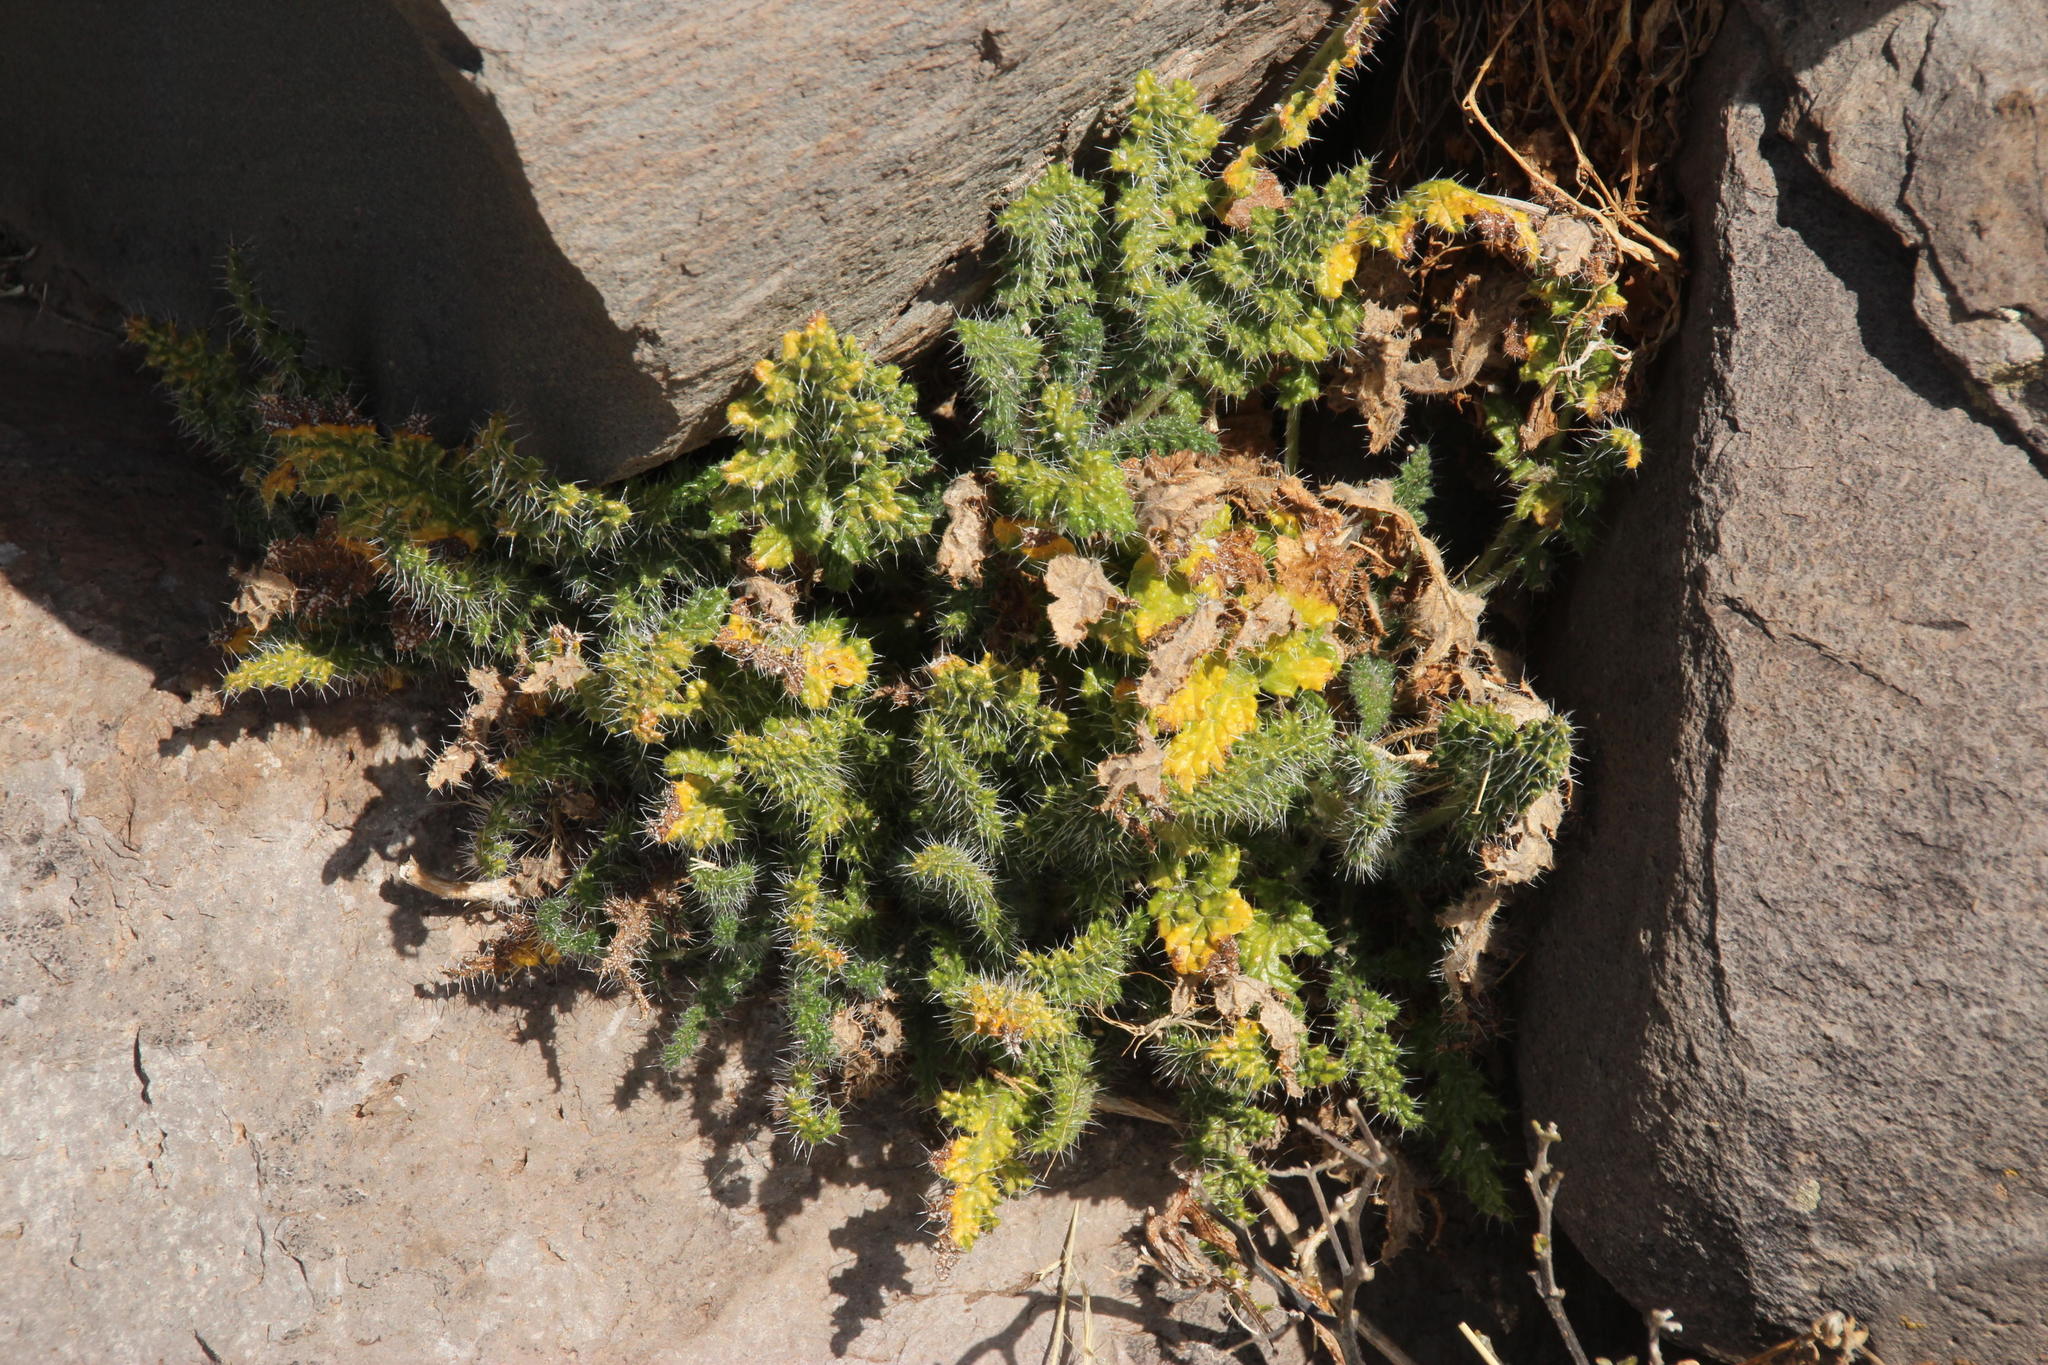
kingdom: Plantae
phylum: Tracheophyta
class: Magnoliopsida
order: Cornales
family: Loasaceae
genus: Caiophora
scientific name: Caiophora andina
